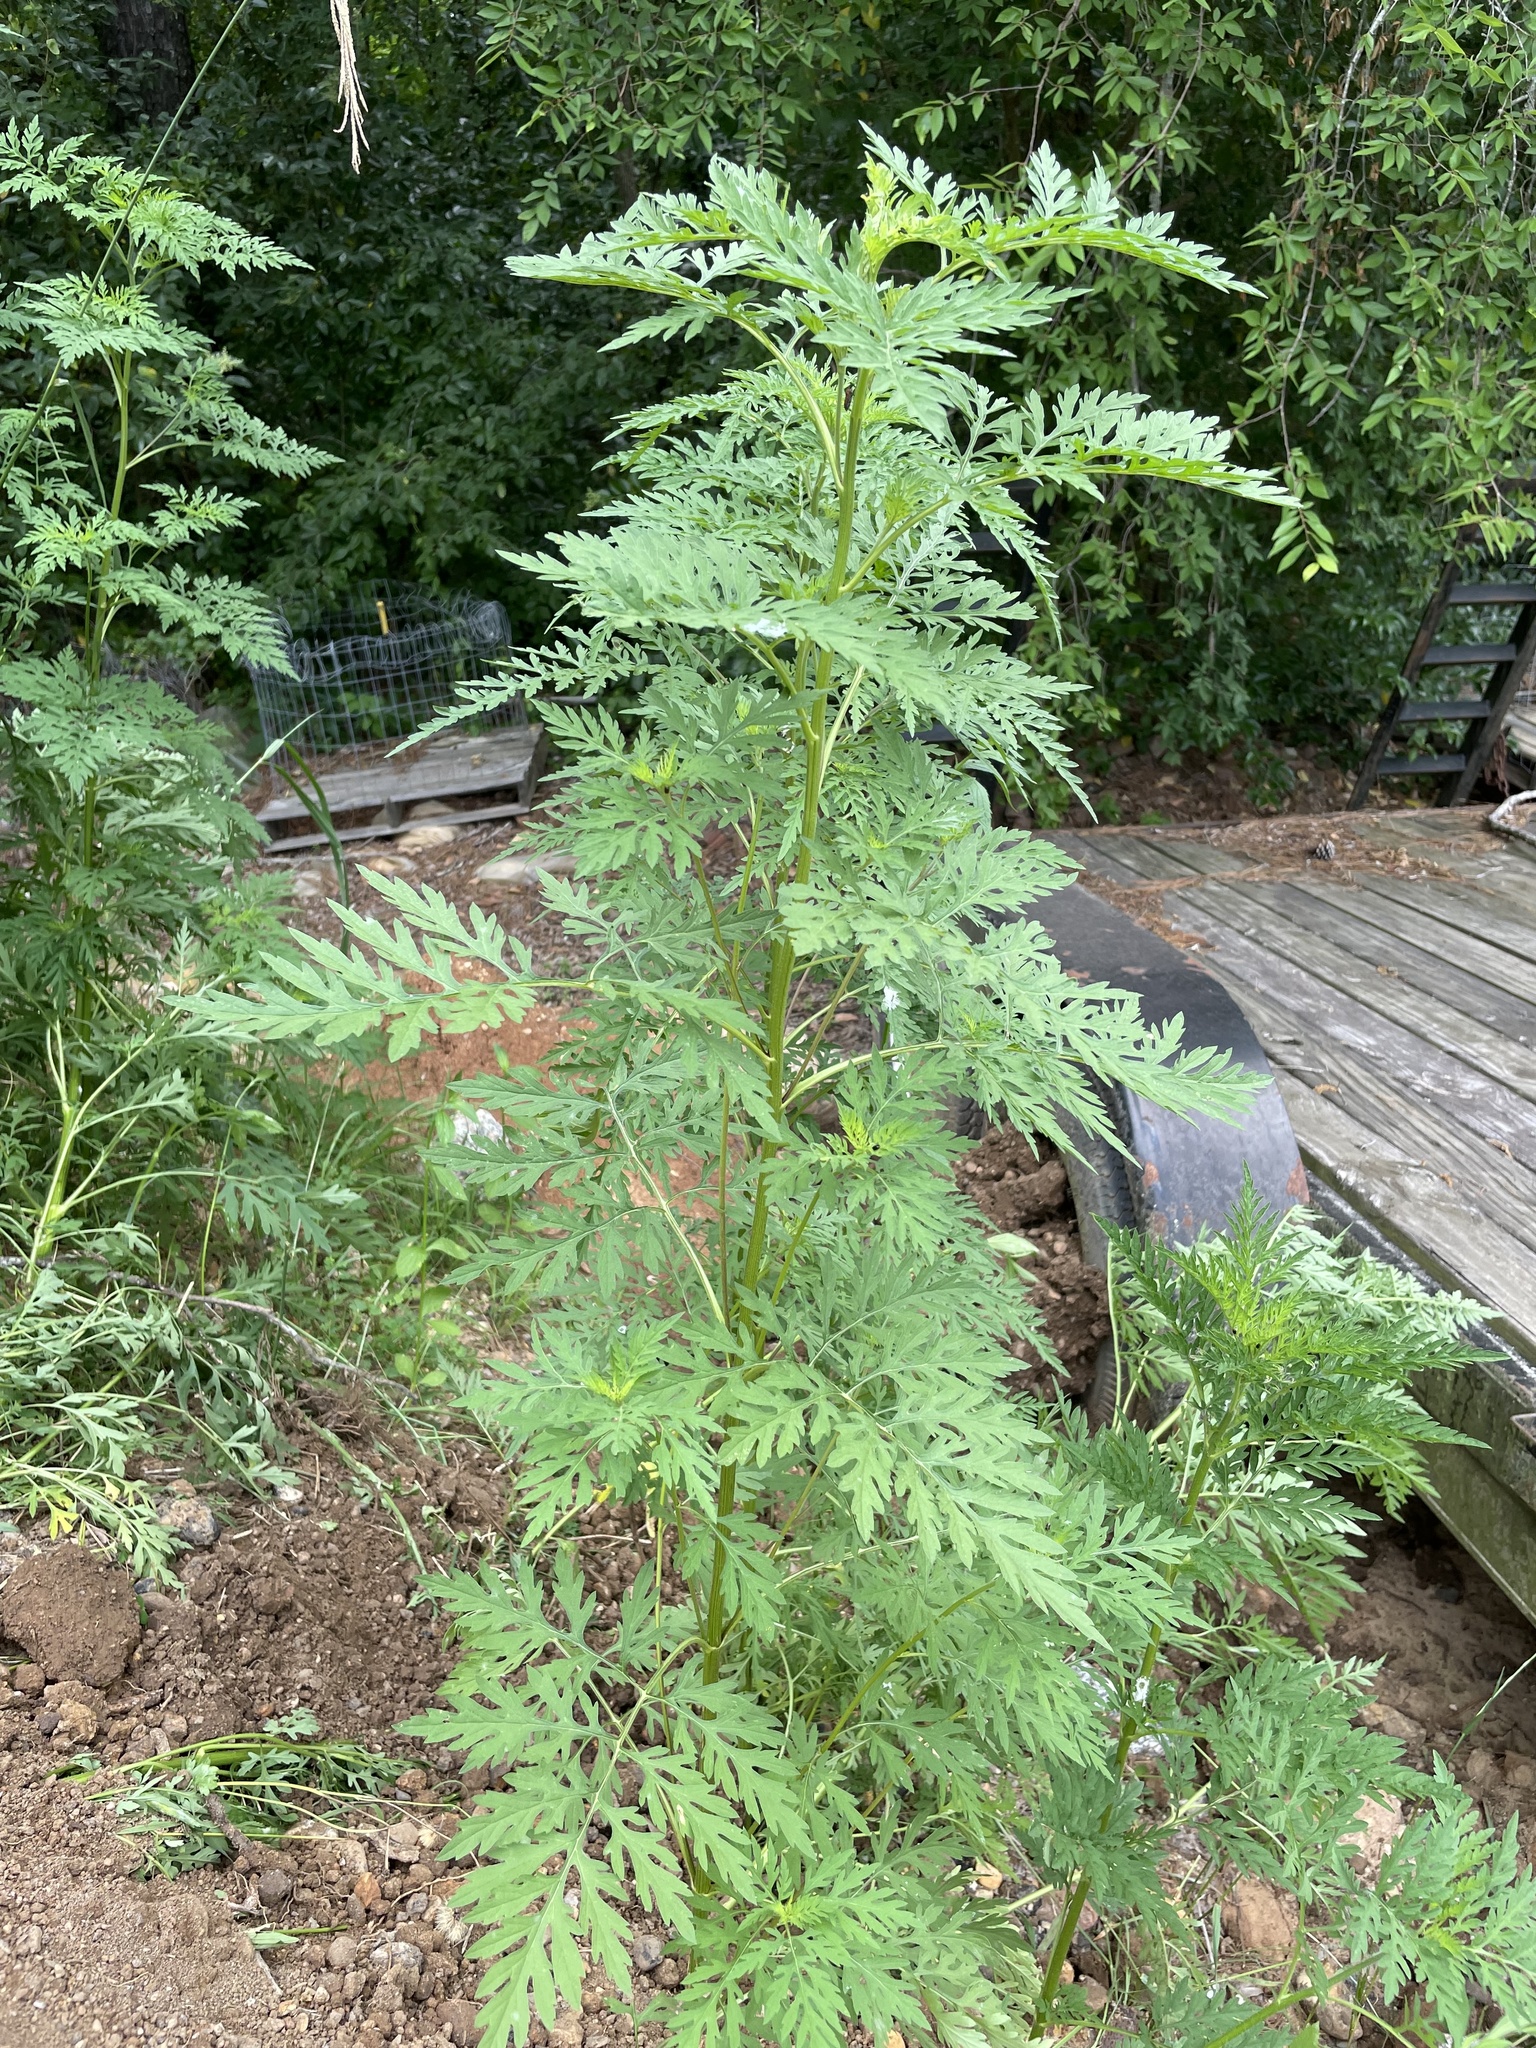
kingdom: Plantae
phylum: Tracheophyta
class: Magnoliopsida
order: Asterales
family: Asteraceae
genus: Ambrosia
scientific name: Ambrosia artemisiifolia
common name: Annual ragweed
